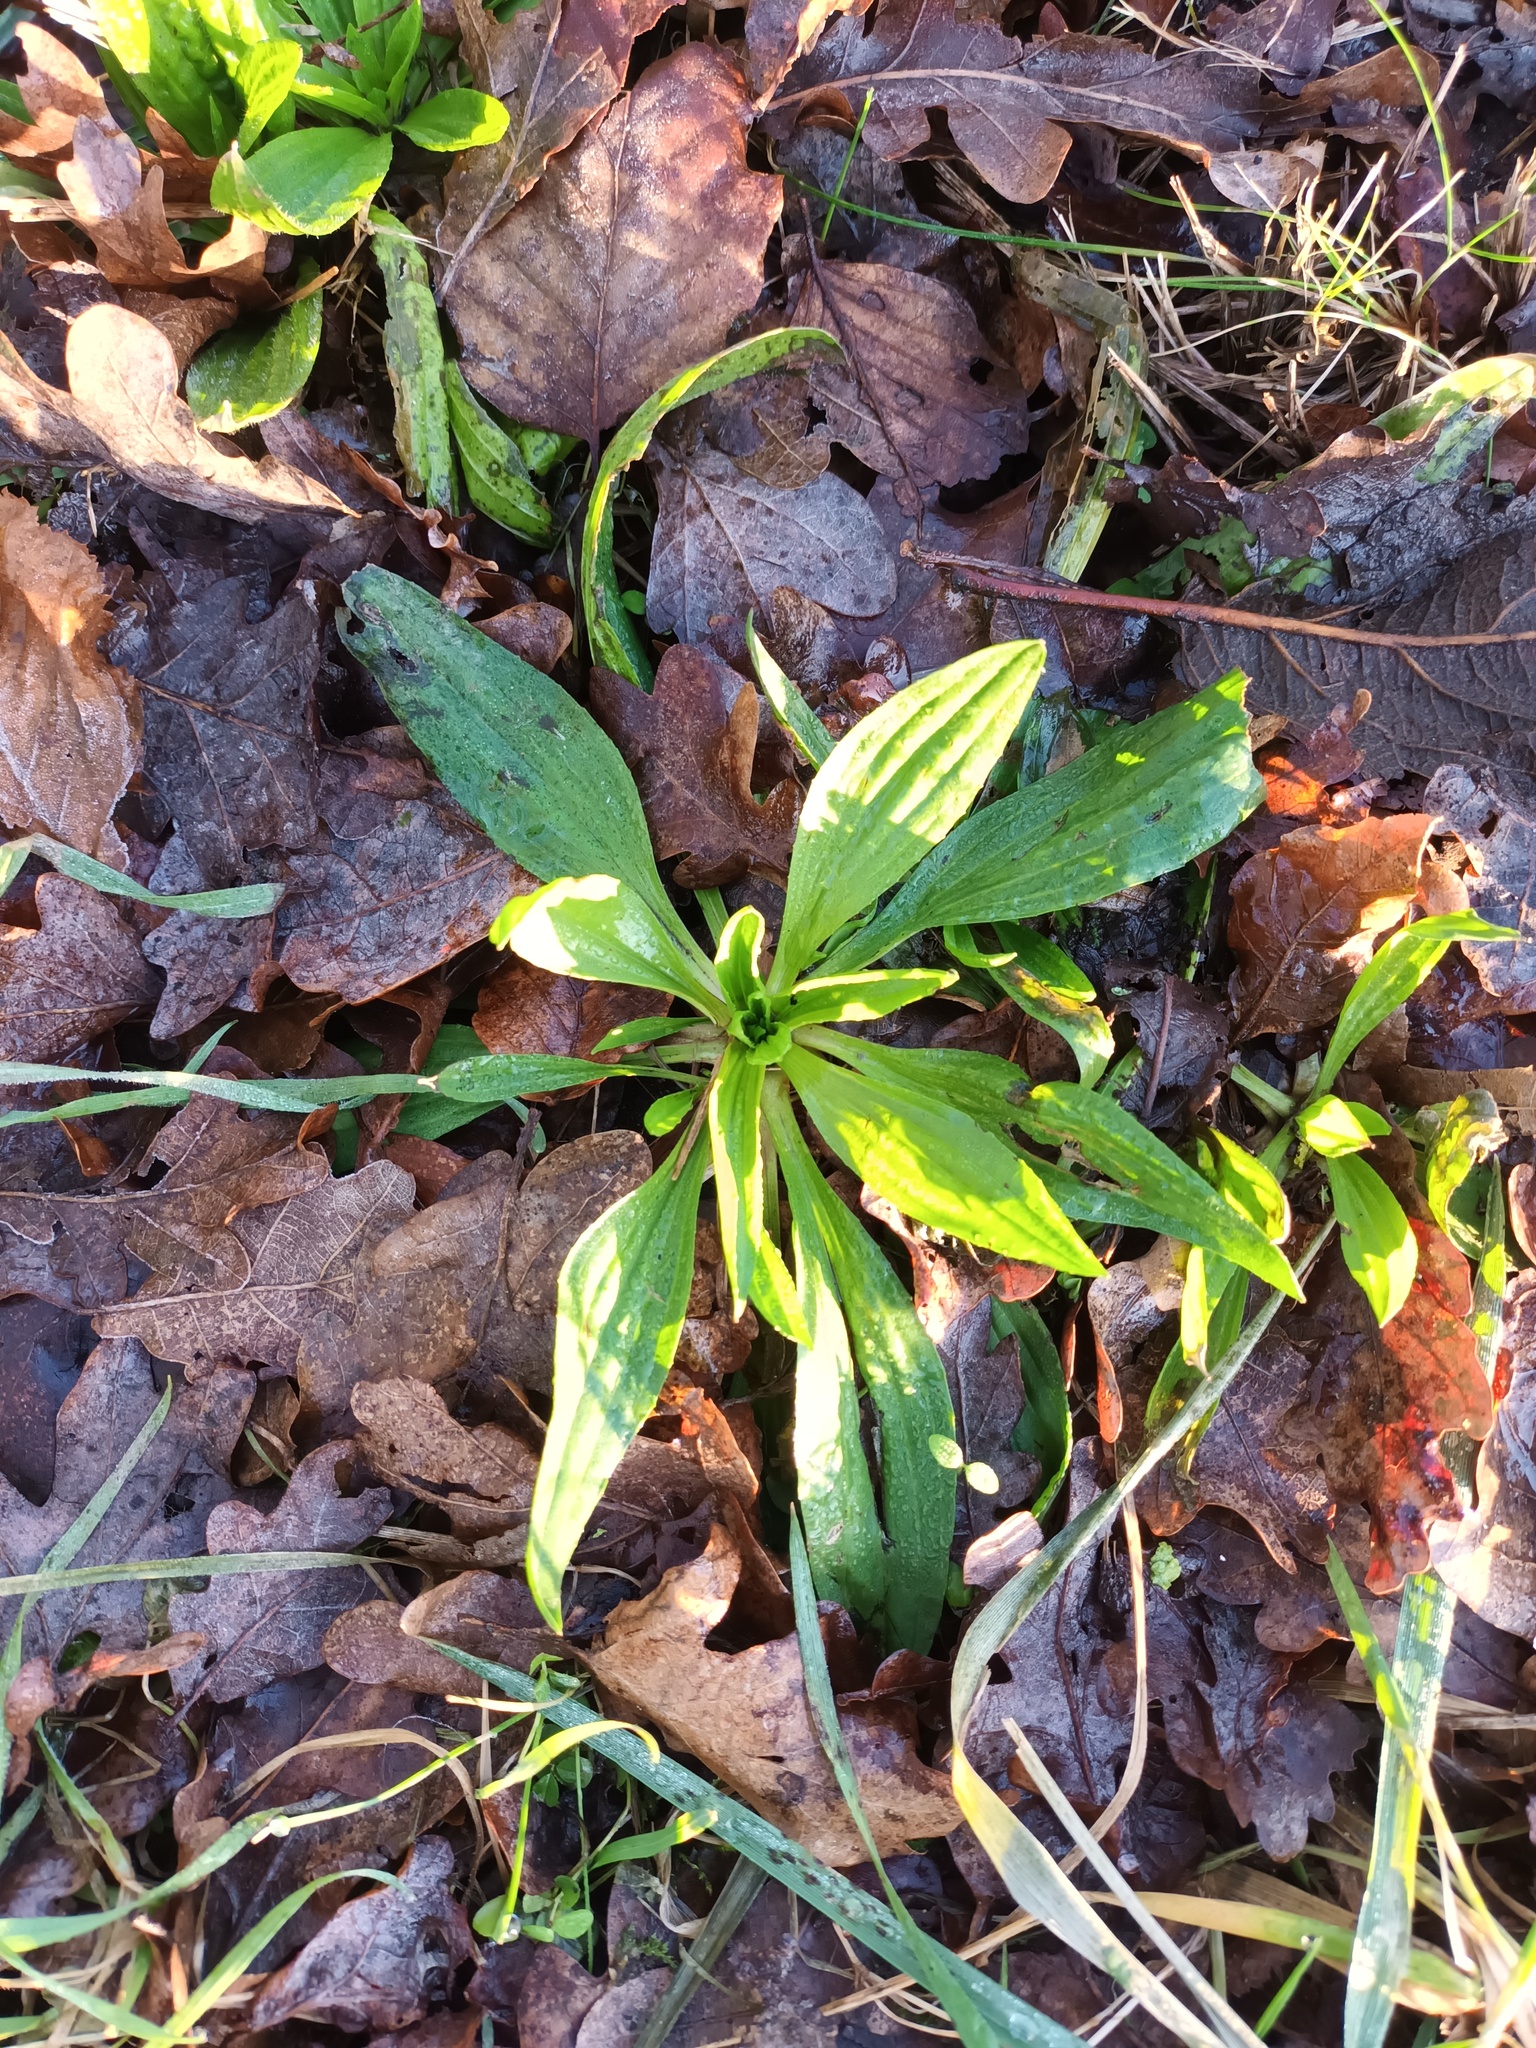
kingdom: Plantae
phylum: Tracheophyta
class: Magnoliopsida
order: Lamiales
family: Plantaginaceae
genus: Plantago
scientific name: Plantago lanceolata
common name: Ribwort plantain
